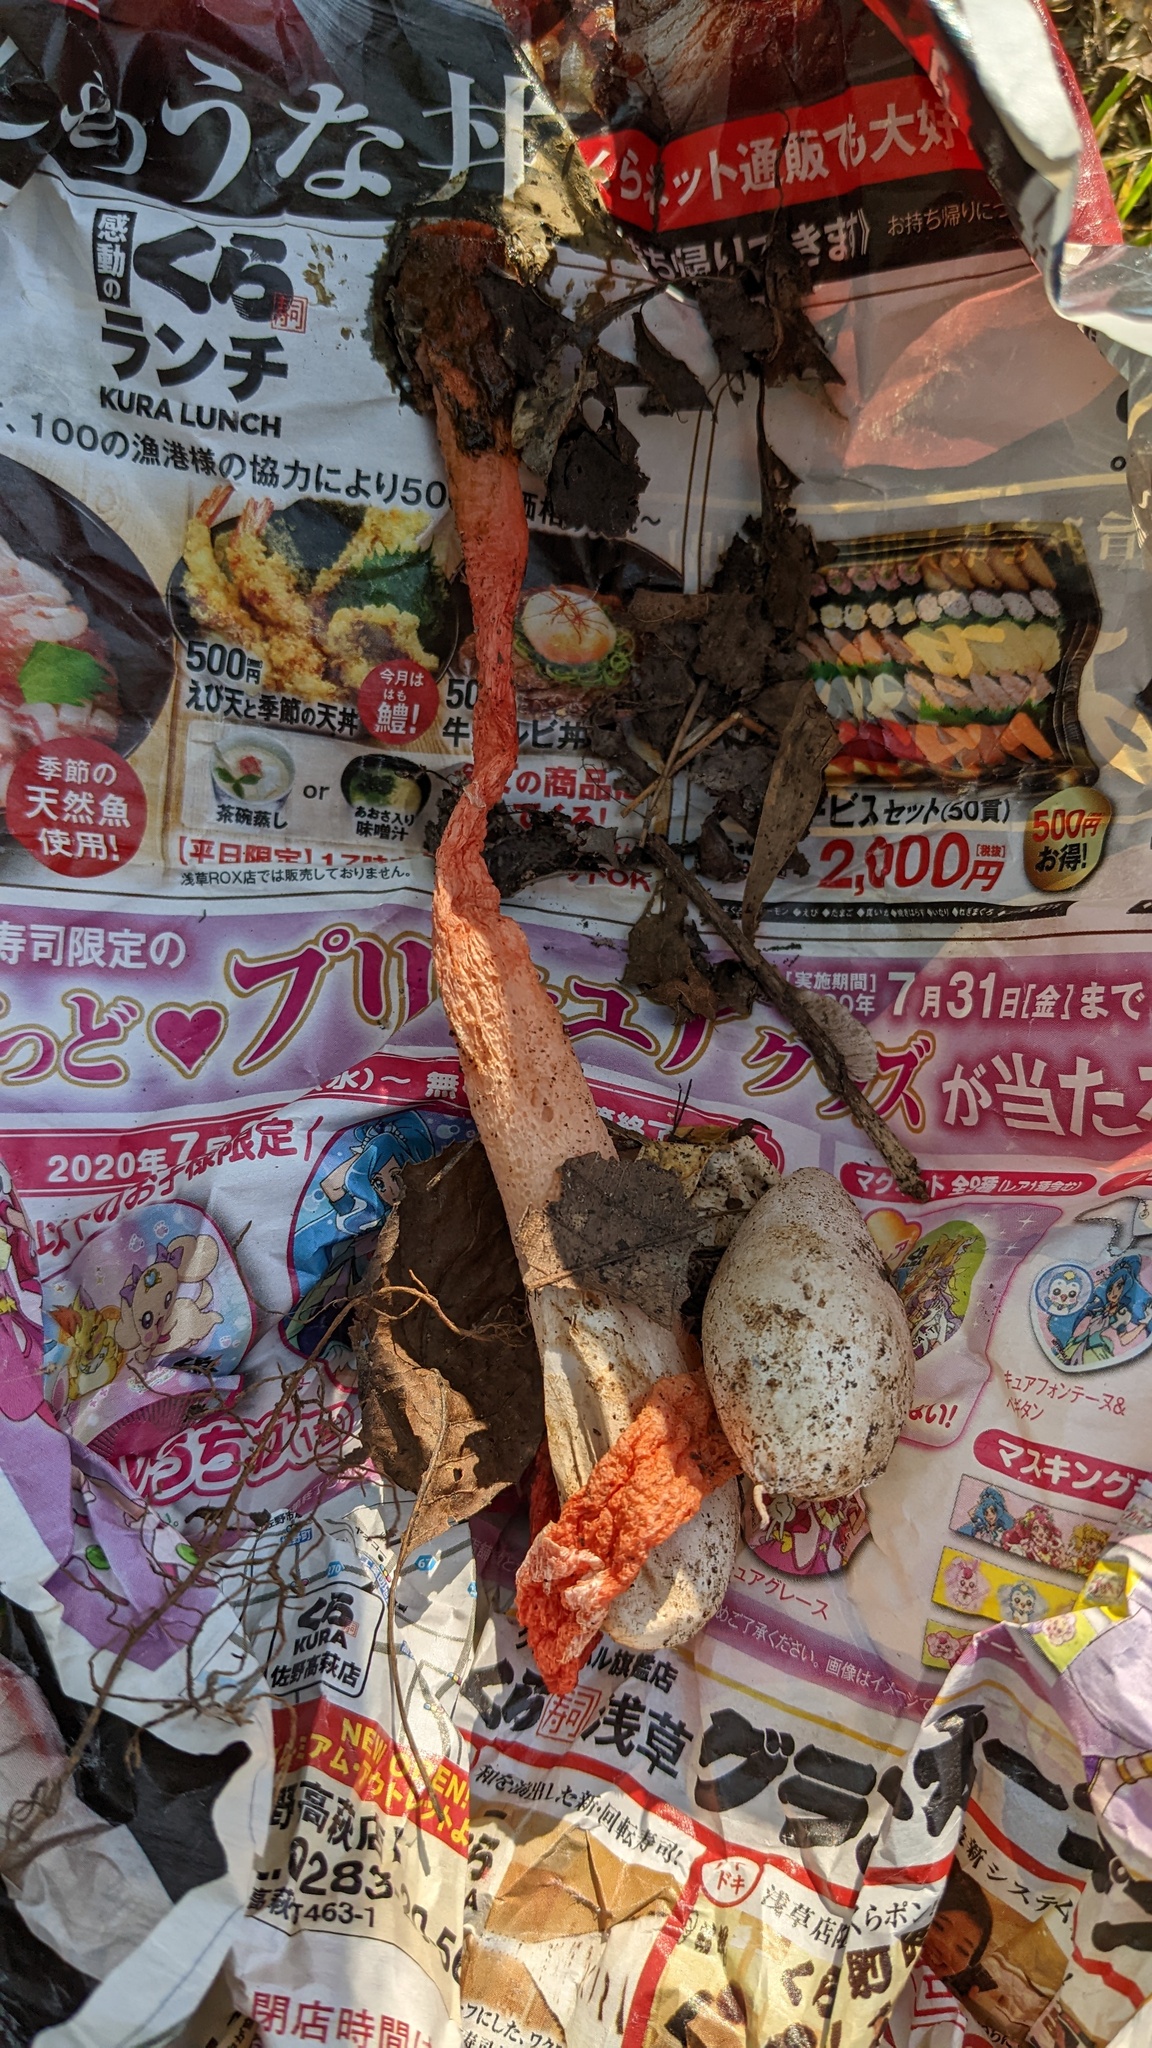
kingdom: Fungi
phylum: Basidiomycota
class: Agaricomycetes
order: Phallales
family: Phallaceae
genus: Phallus
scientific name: Phallus rugulosus
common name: Wrinkly stinkhorn
